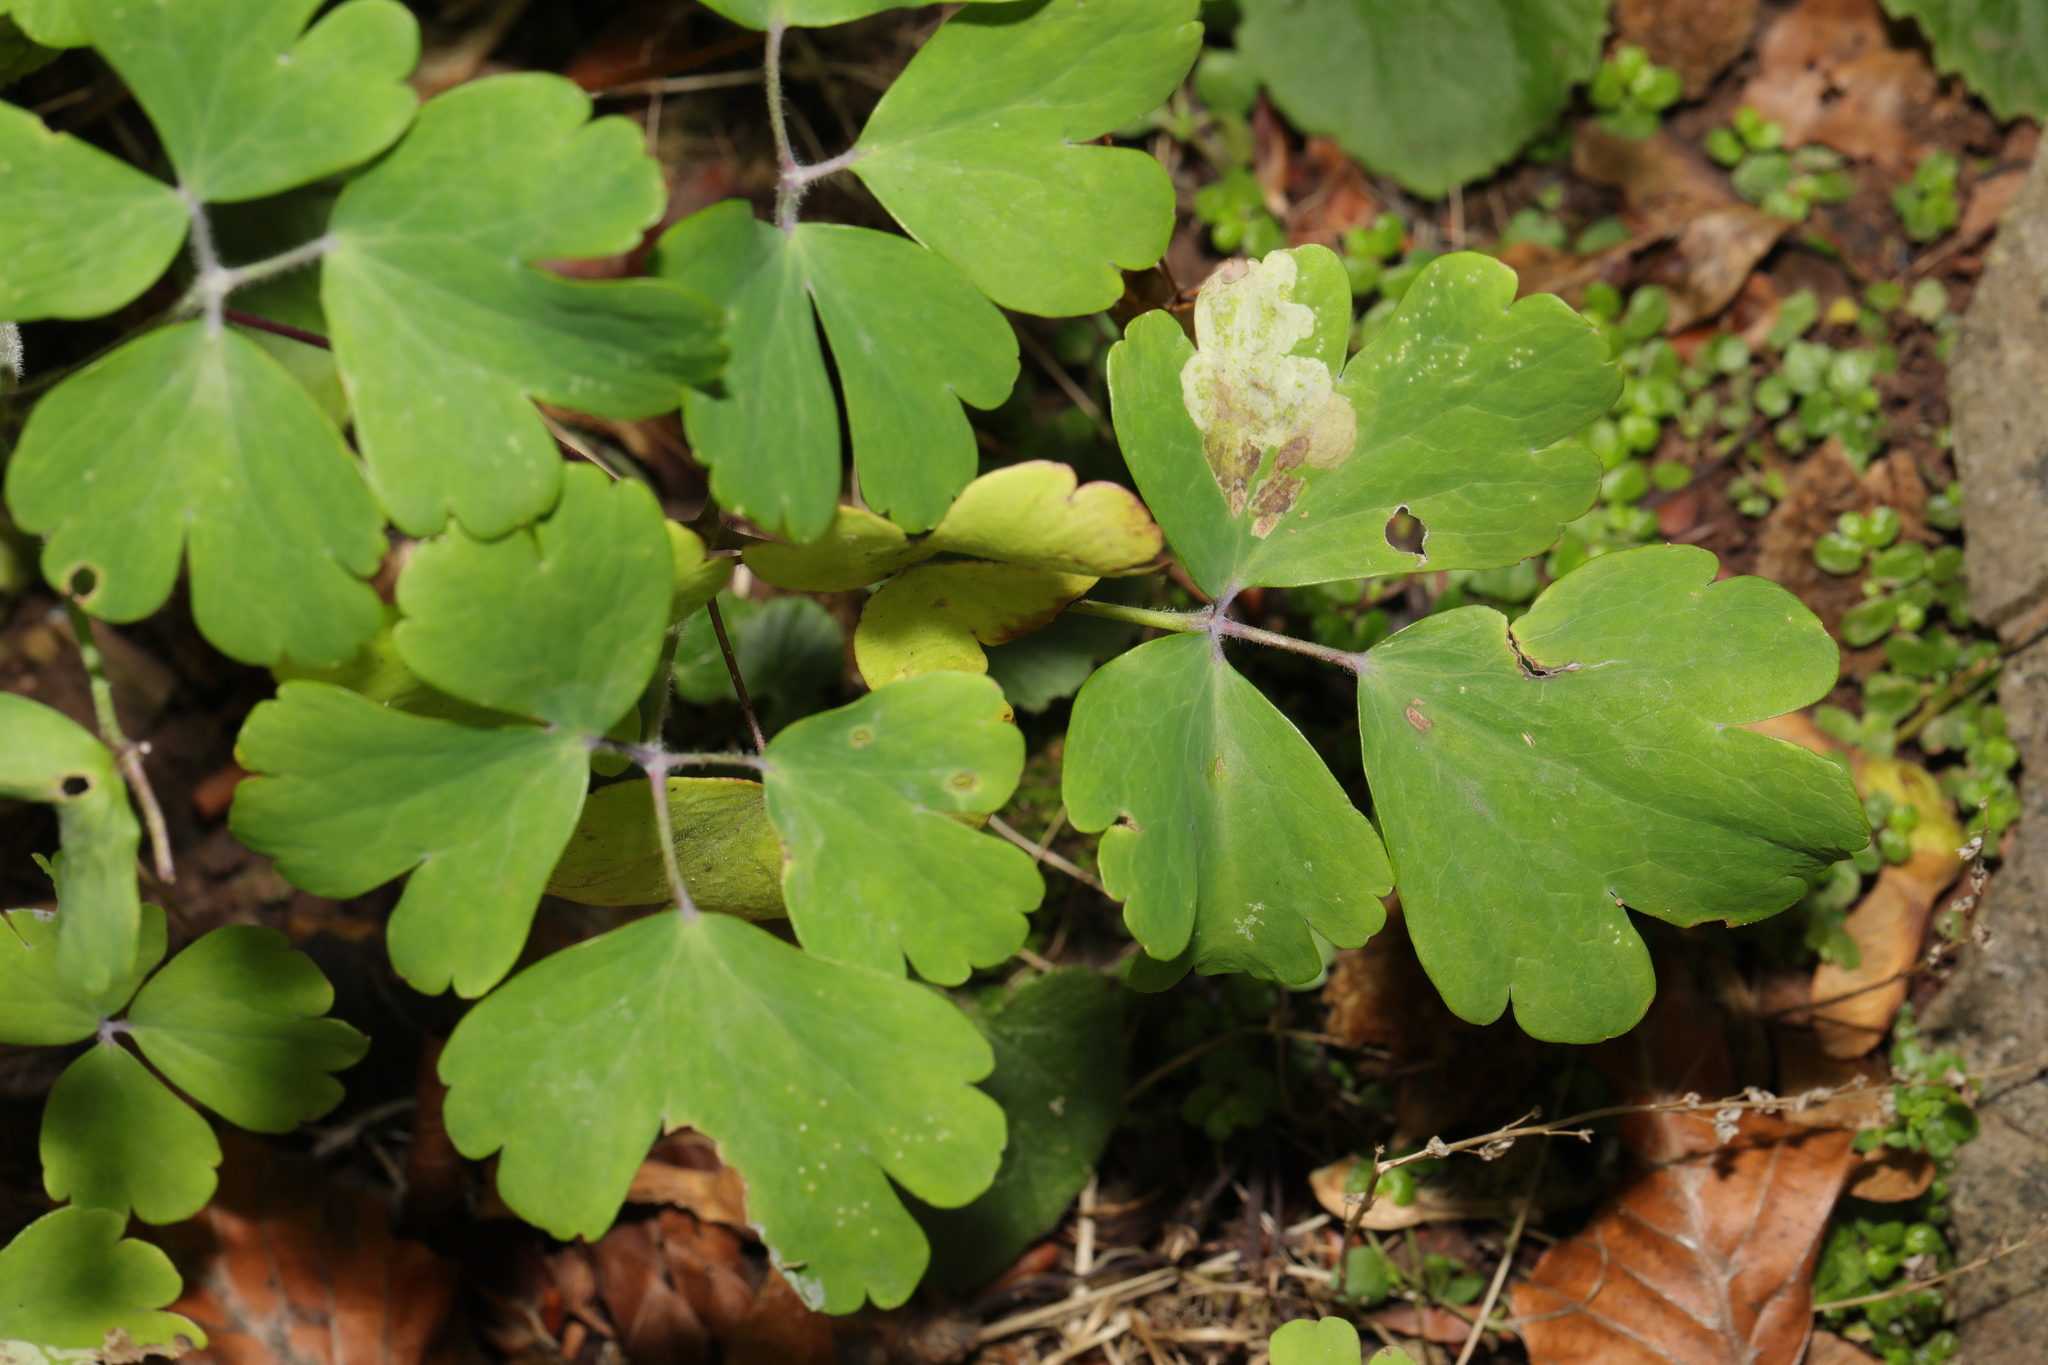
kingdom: Plantae
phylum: Tracheophyta
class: Magnoliopsida
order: Ranunculales
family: Ranunculaceae
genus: Aquilegia
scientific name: Aquilegia vulgaris
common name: Columbine
